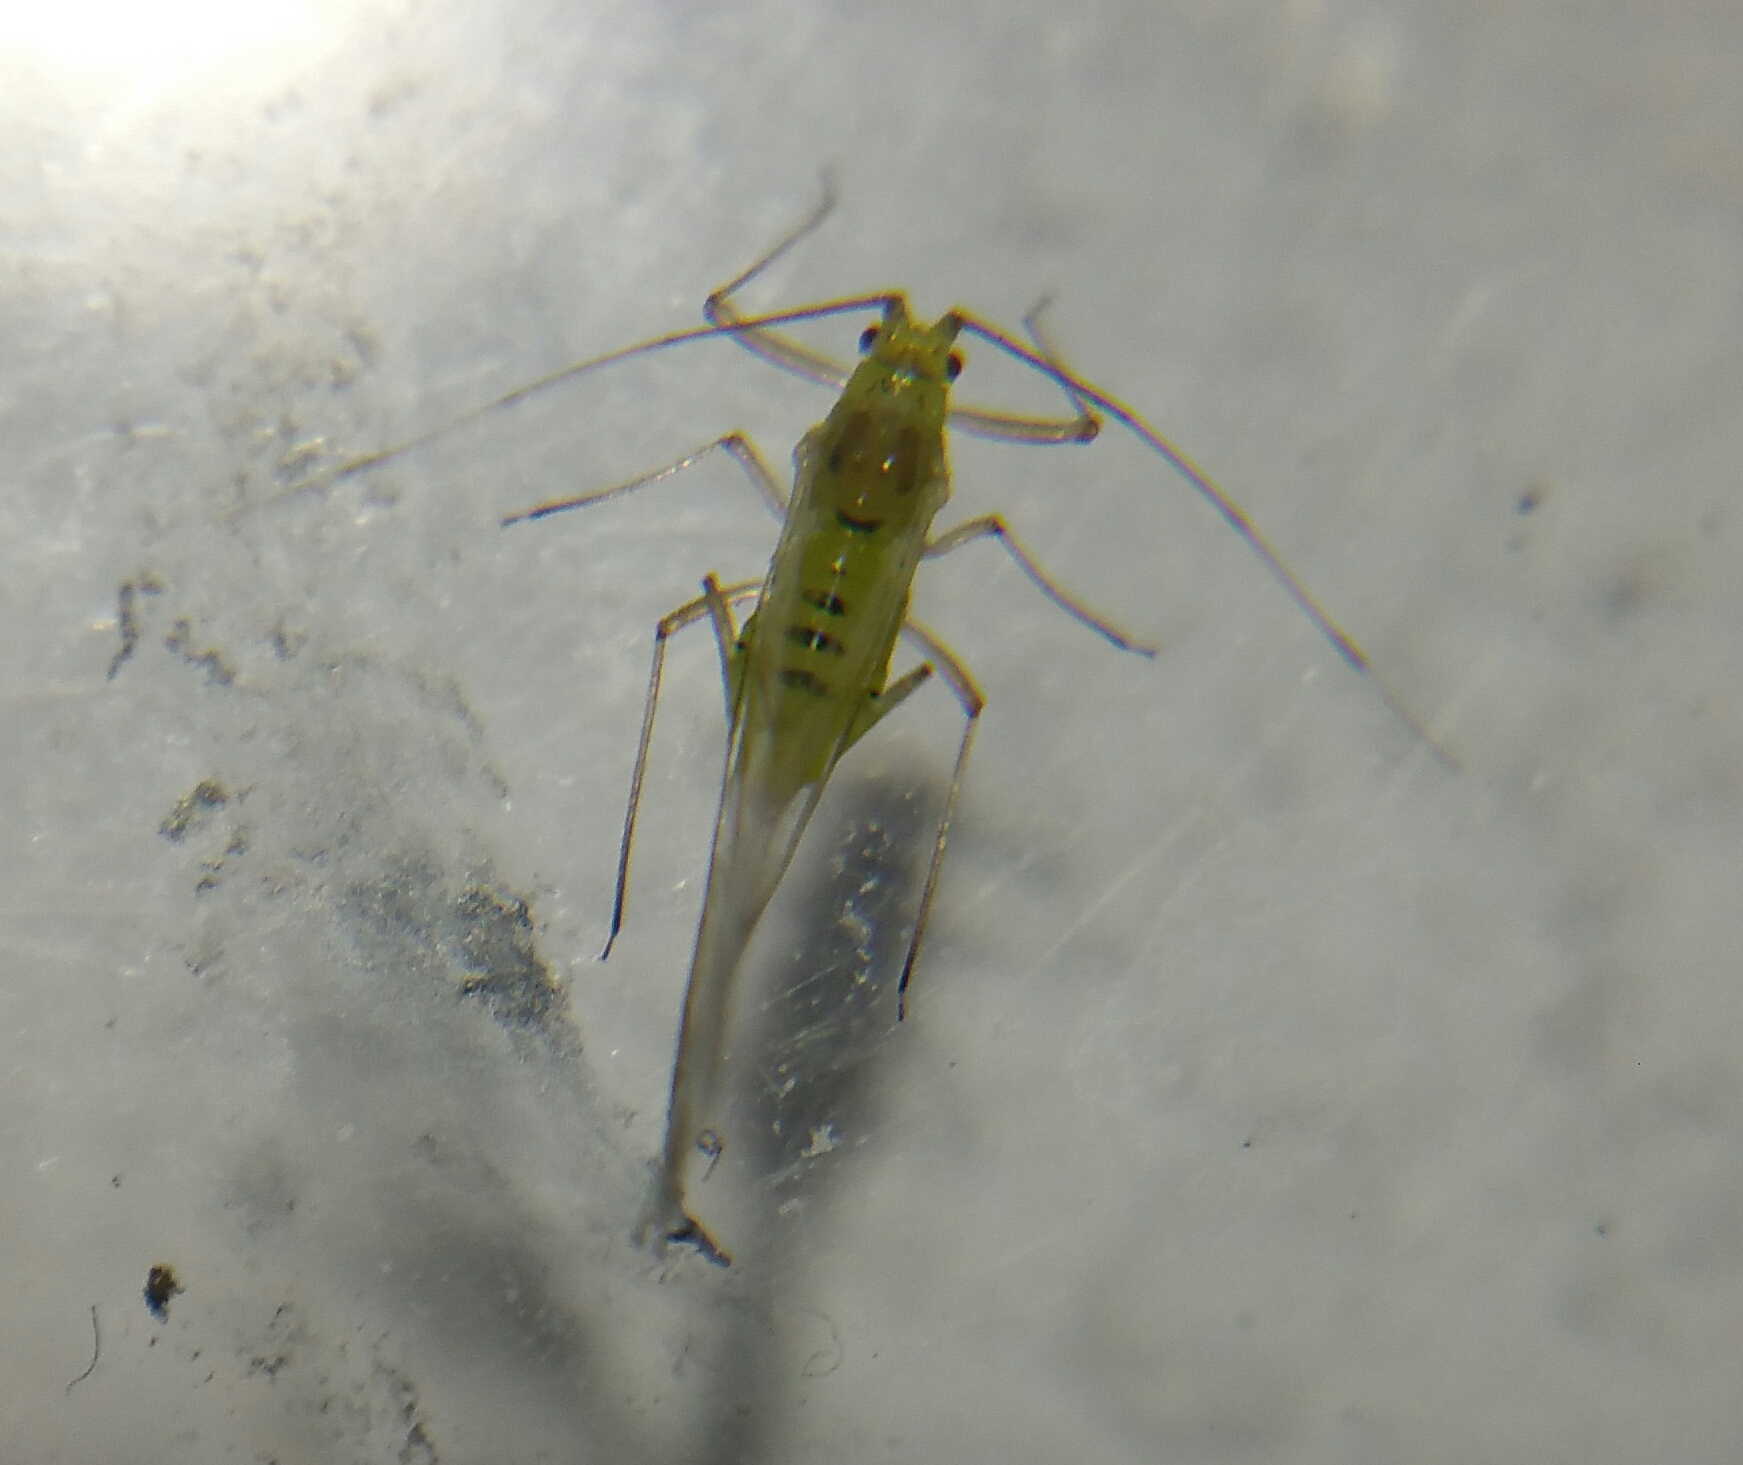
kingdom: Animalia
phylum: Arthropoda
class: Insecta
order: Hemiptera
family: Aphididae
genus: Drepanosiphum
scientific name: Drepanosiphum platanoidis
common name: Common sycamore aphid
